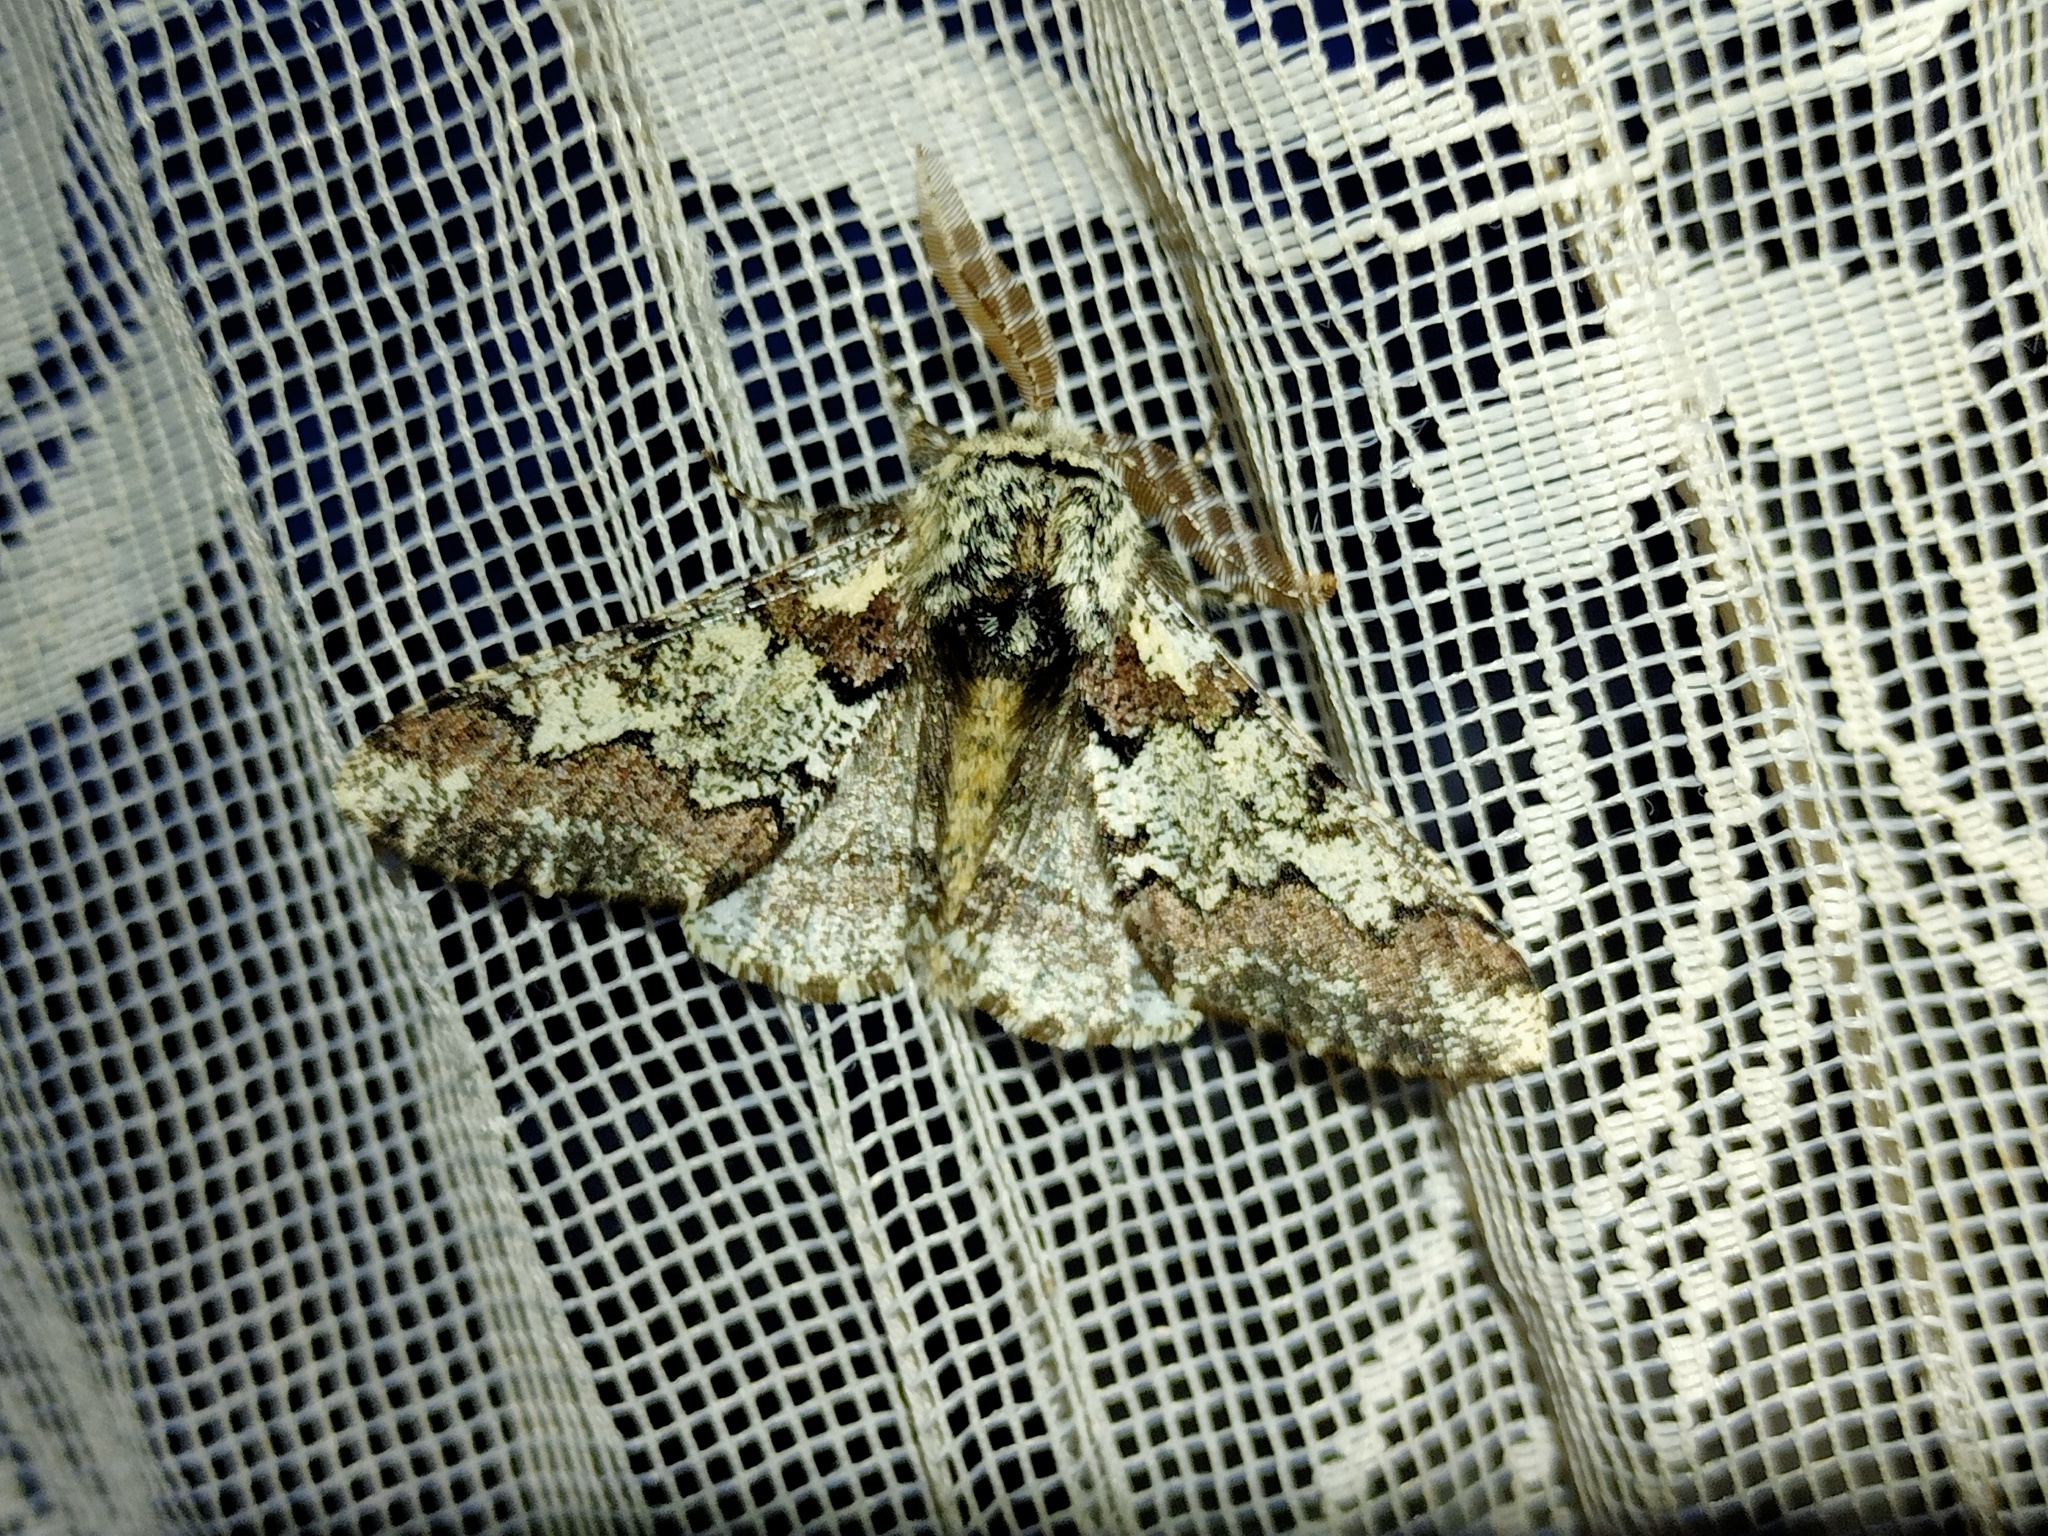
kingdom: Animalia
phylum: Arthropoda
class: Insecta
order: Lepidoptera
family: Geometridae
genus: Biston
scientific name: Biston strataria
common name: Oak beauty
